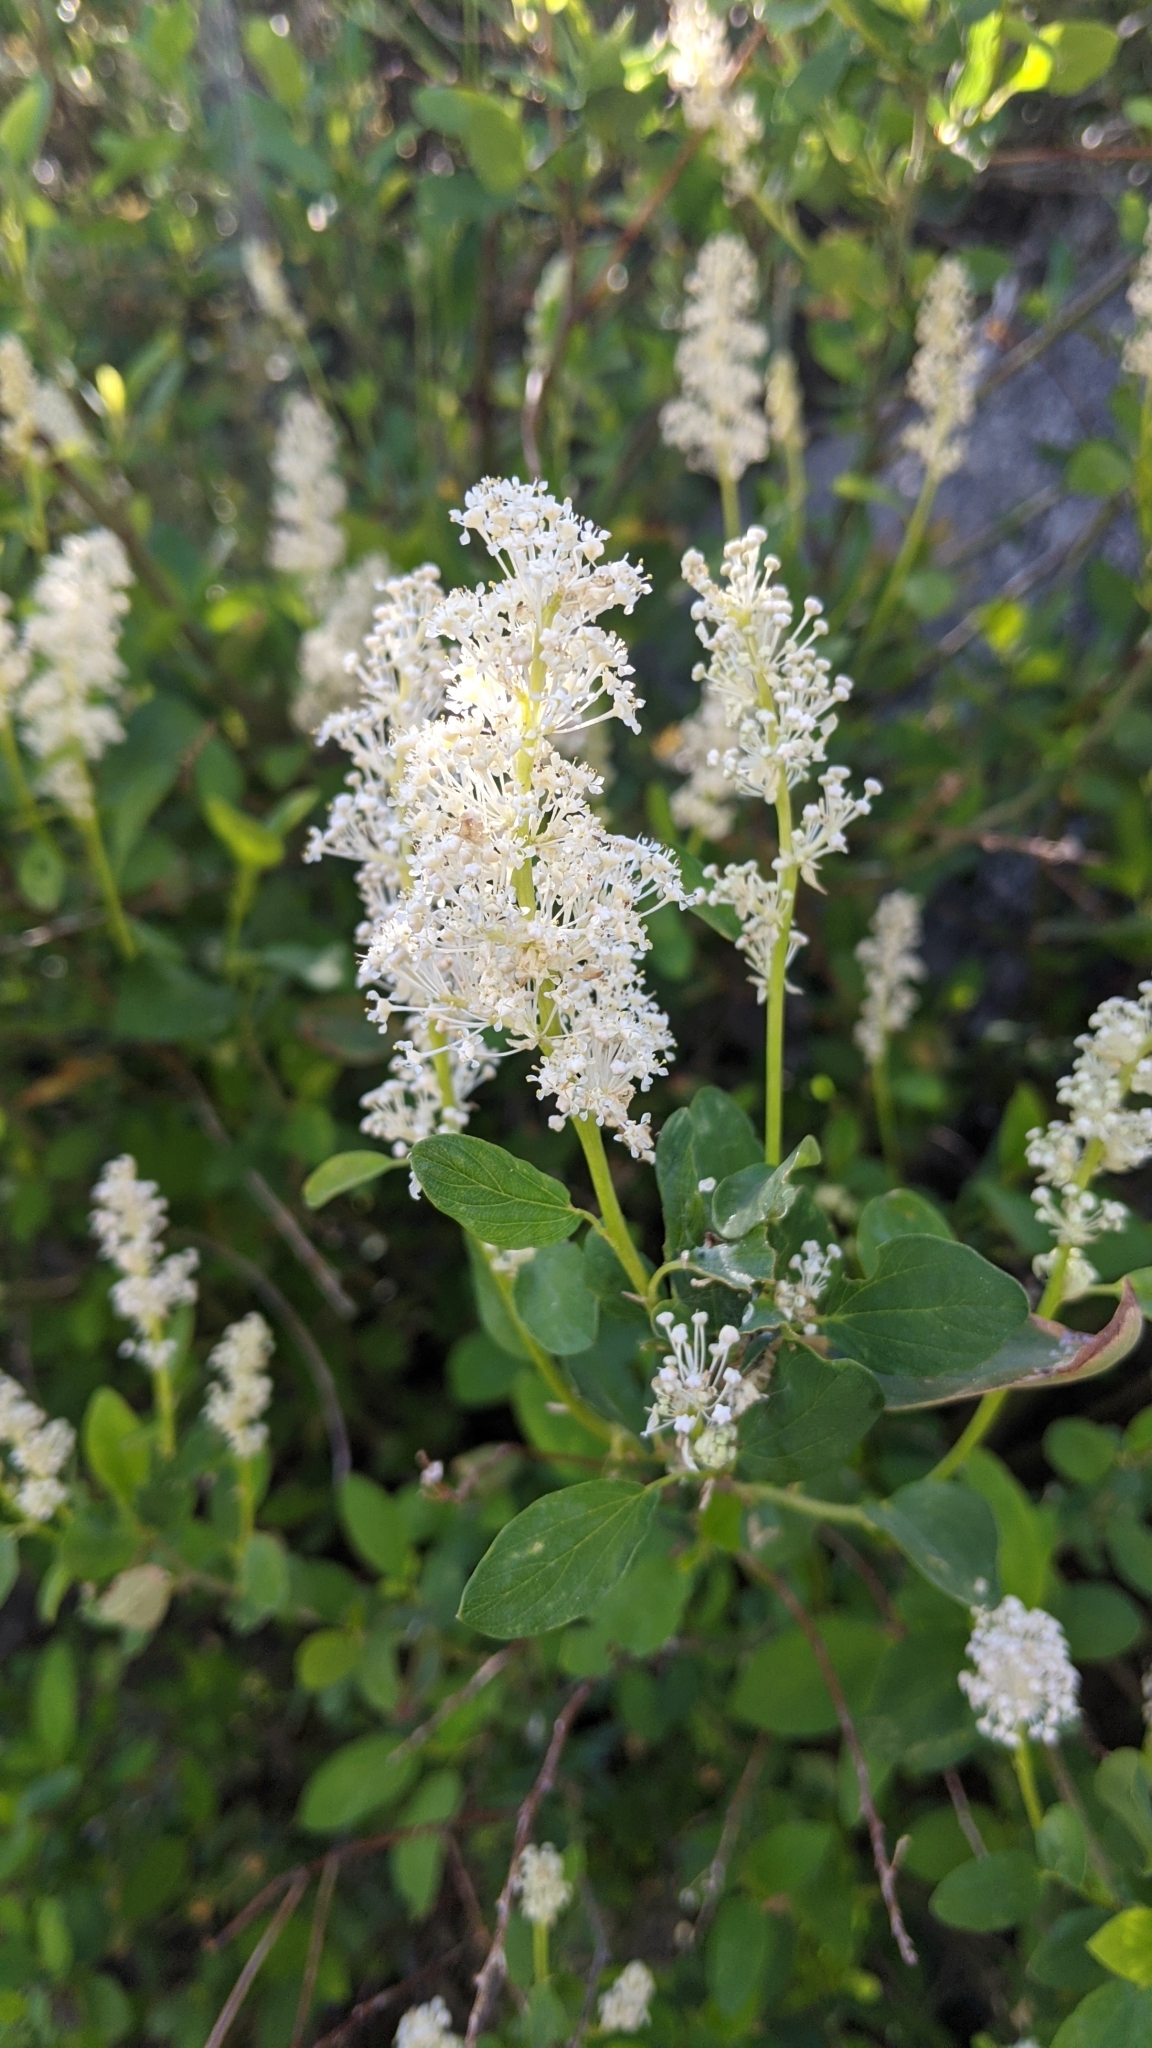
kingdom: Plantae
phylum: Tracheophyta
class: Magnoliopsida
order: Rosales
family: Rhamnaceae
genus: Ceanothus
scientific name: Ceanothus integerrimus
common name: Deerbrush ceanothus
